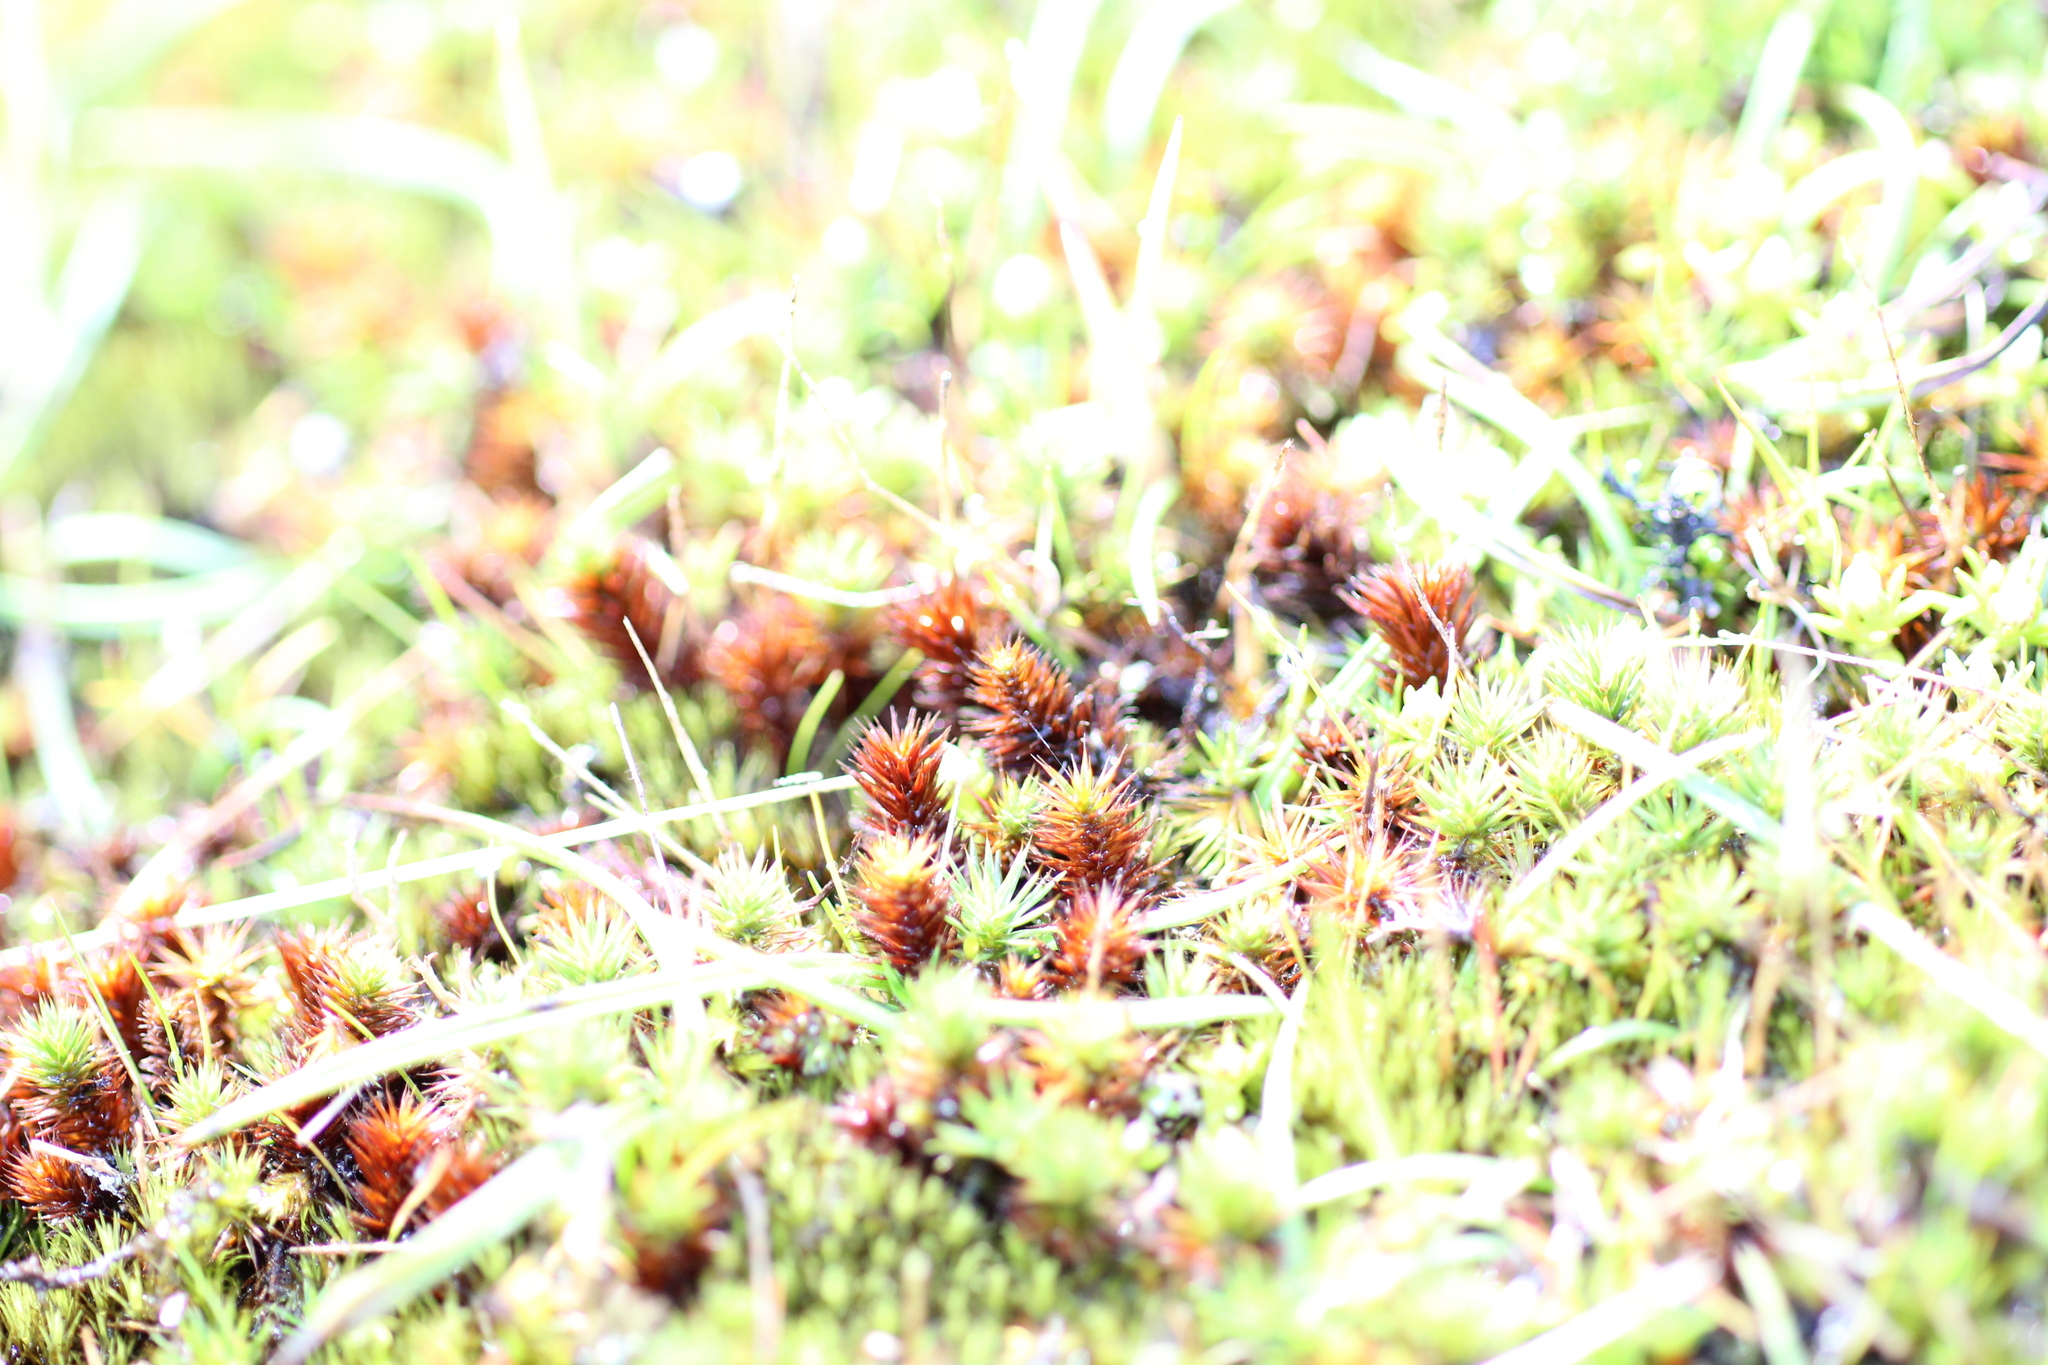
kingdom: Plantae
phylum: Bryophyta
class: Polytrichopsida
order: Polytrichales
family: Polytrichaceae
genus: Polytrichum
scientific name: Polytrichum juniperinum
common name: Juniper haircap moss
